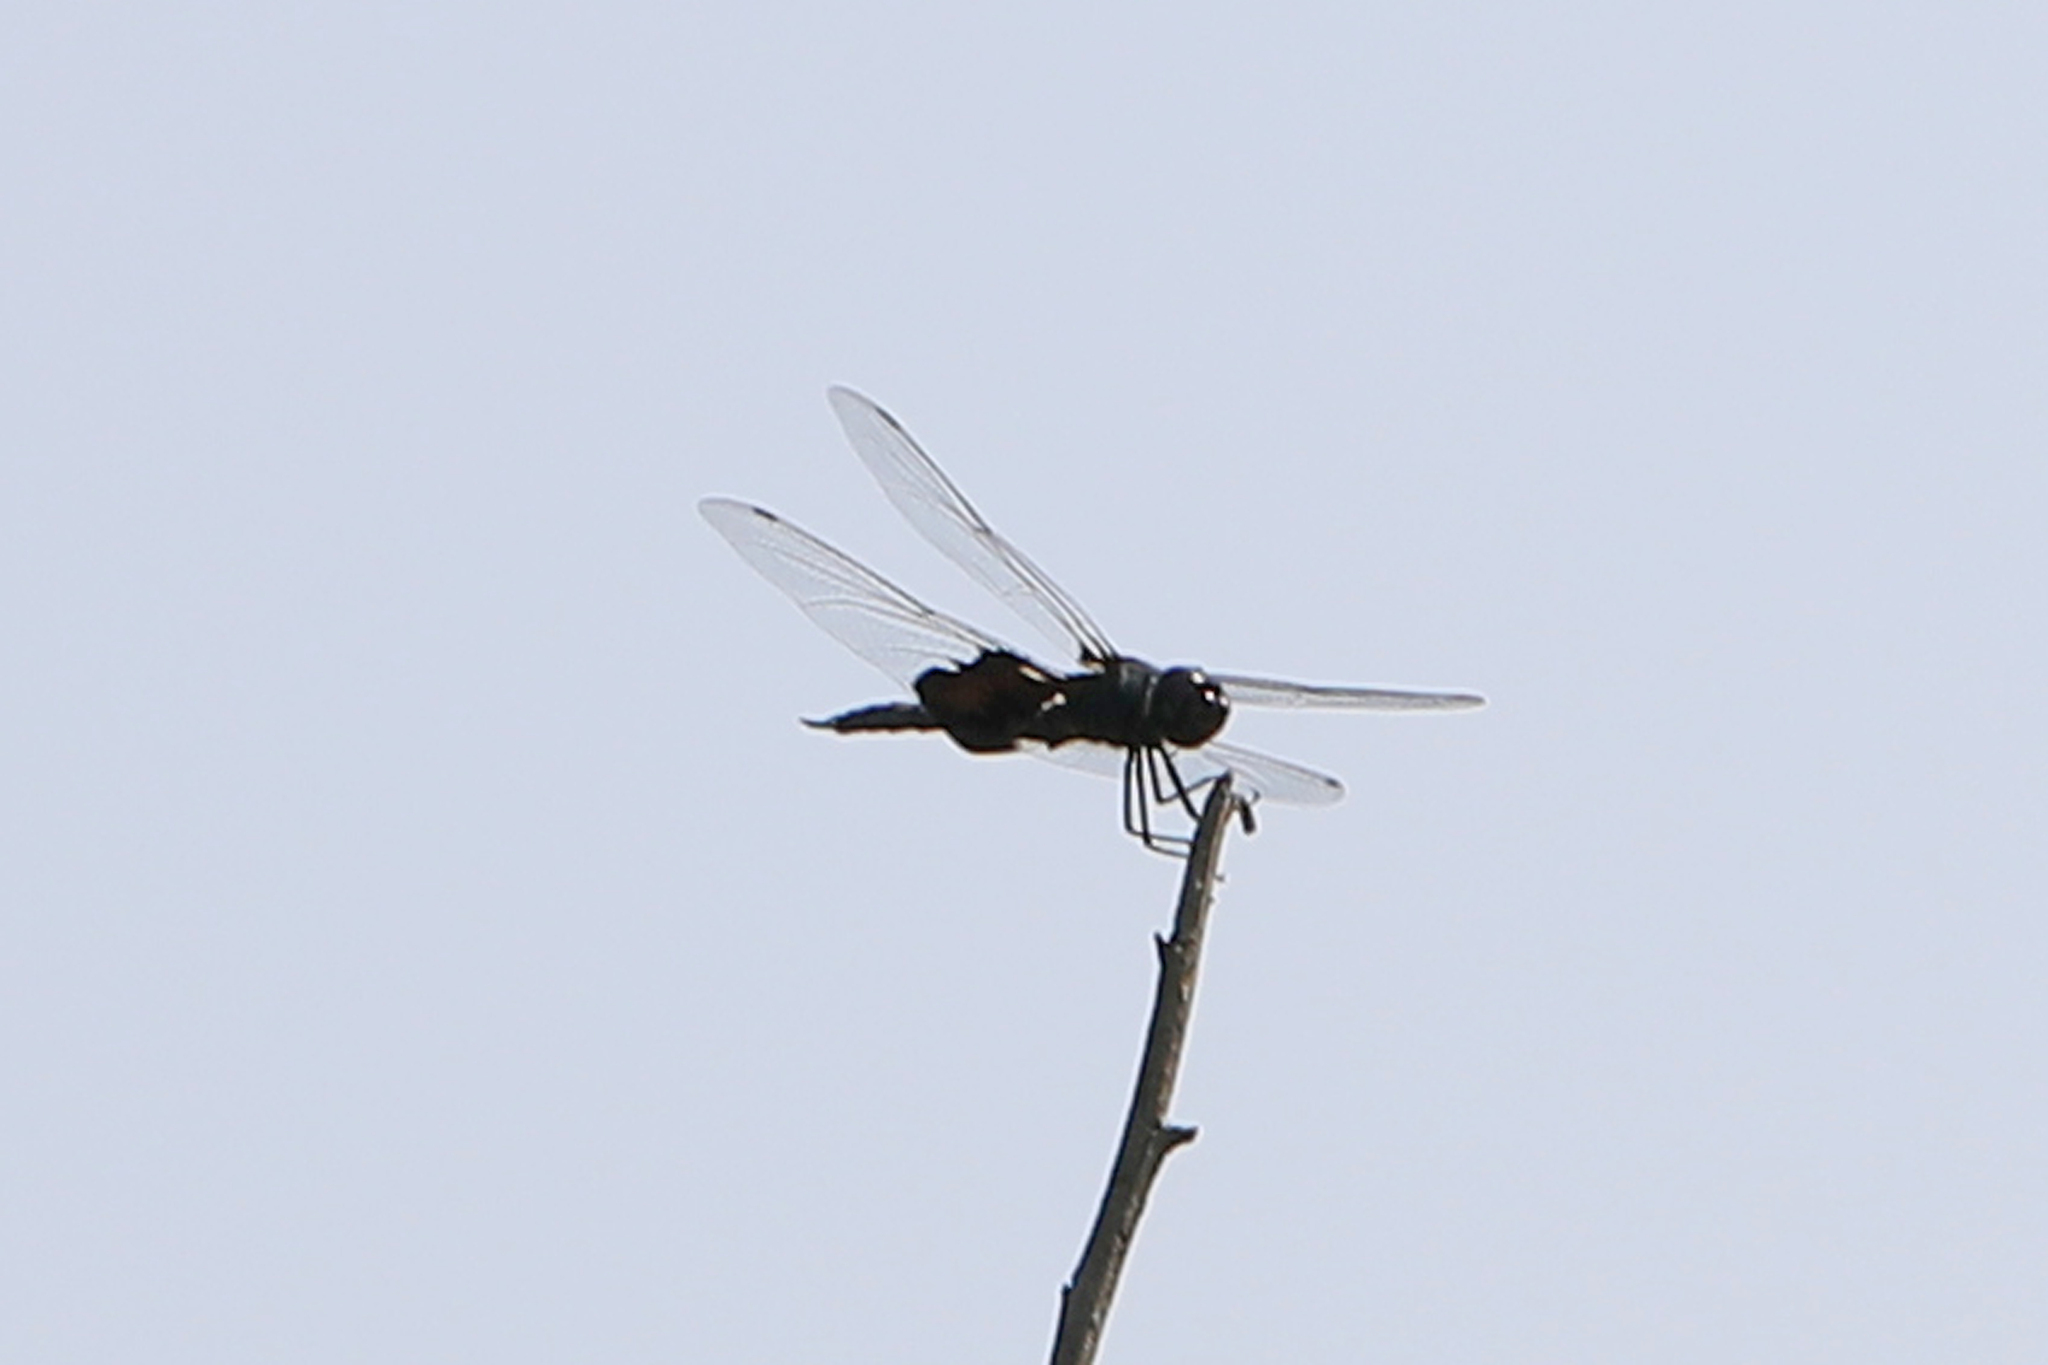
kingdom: Animalia
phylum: Arthropoda
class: Insecta
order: Odonata
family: Libellulidae
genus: Tramea
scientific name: Tramea lacerata
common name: Black saddlebags
